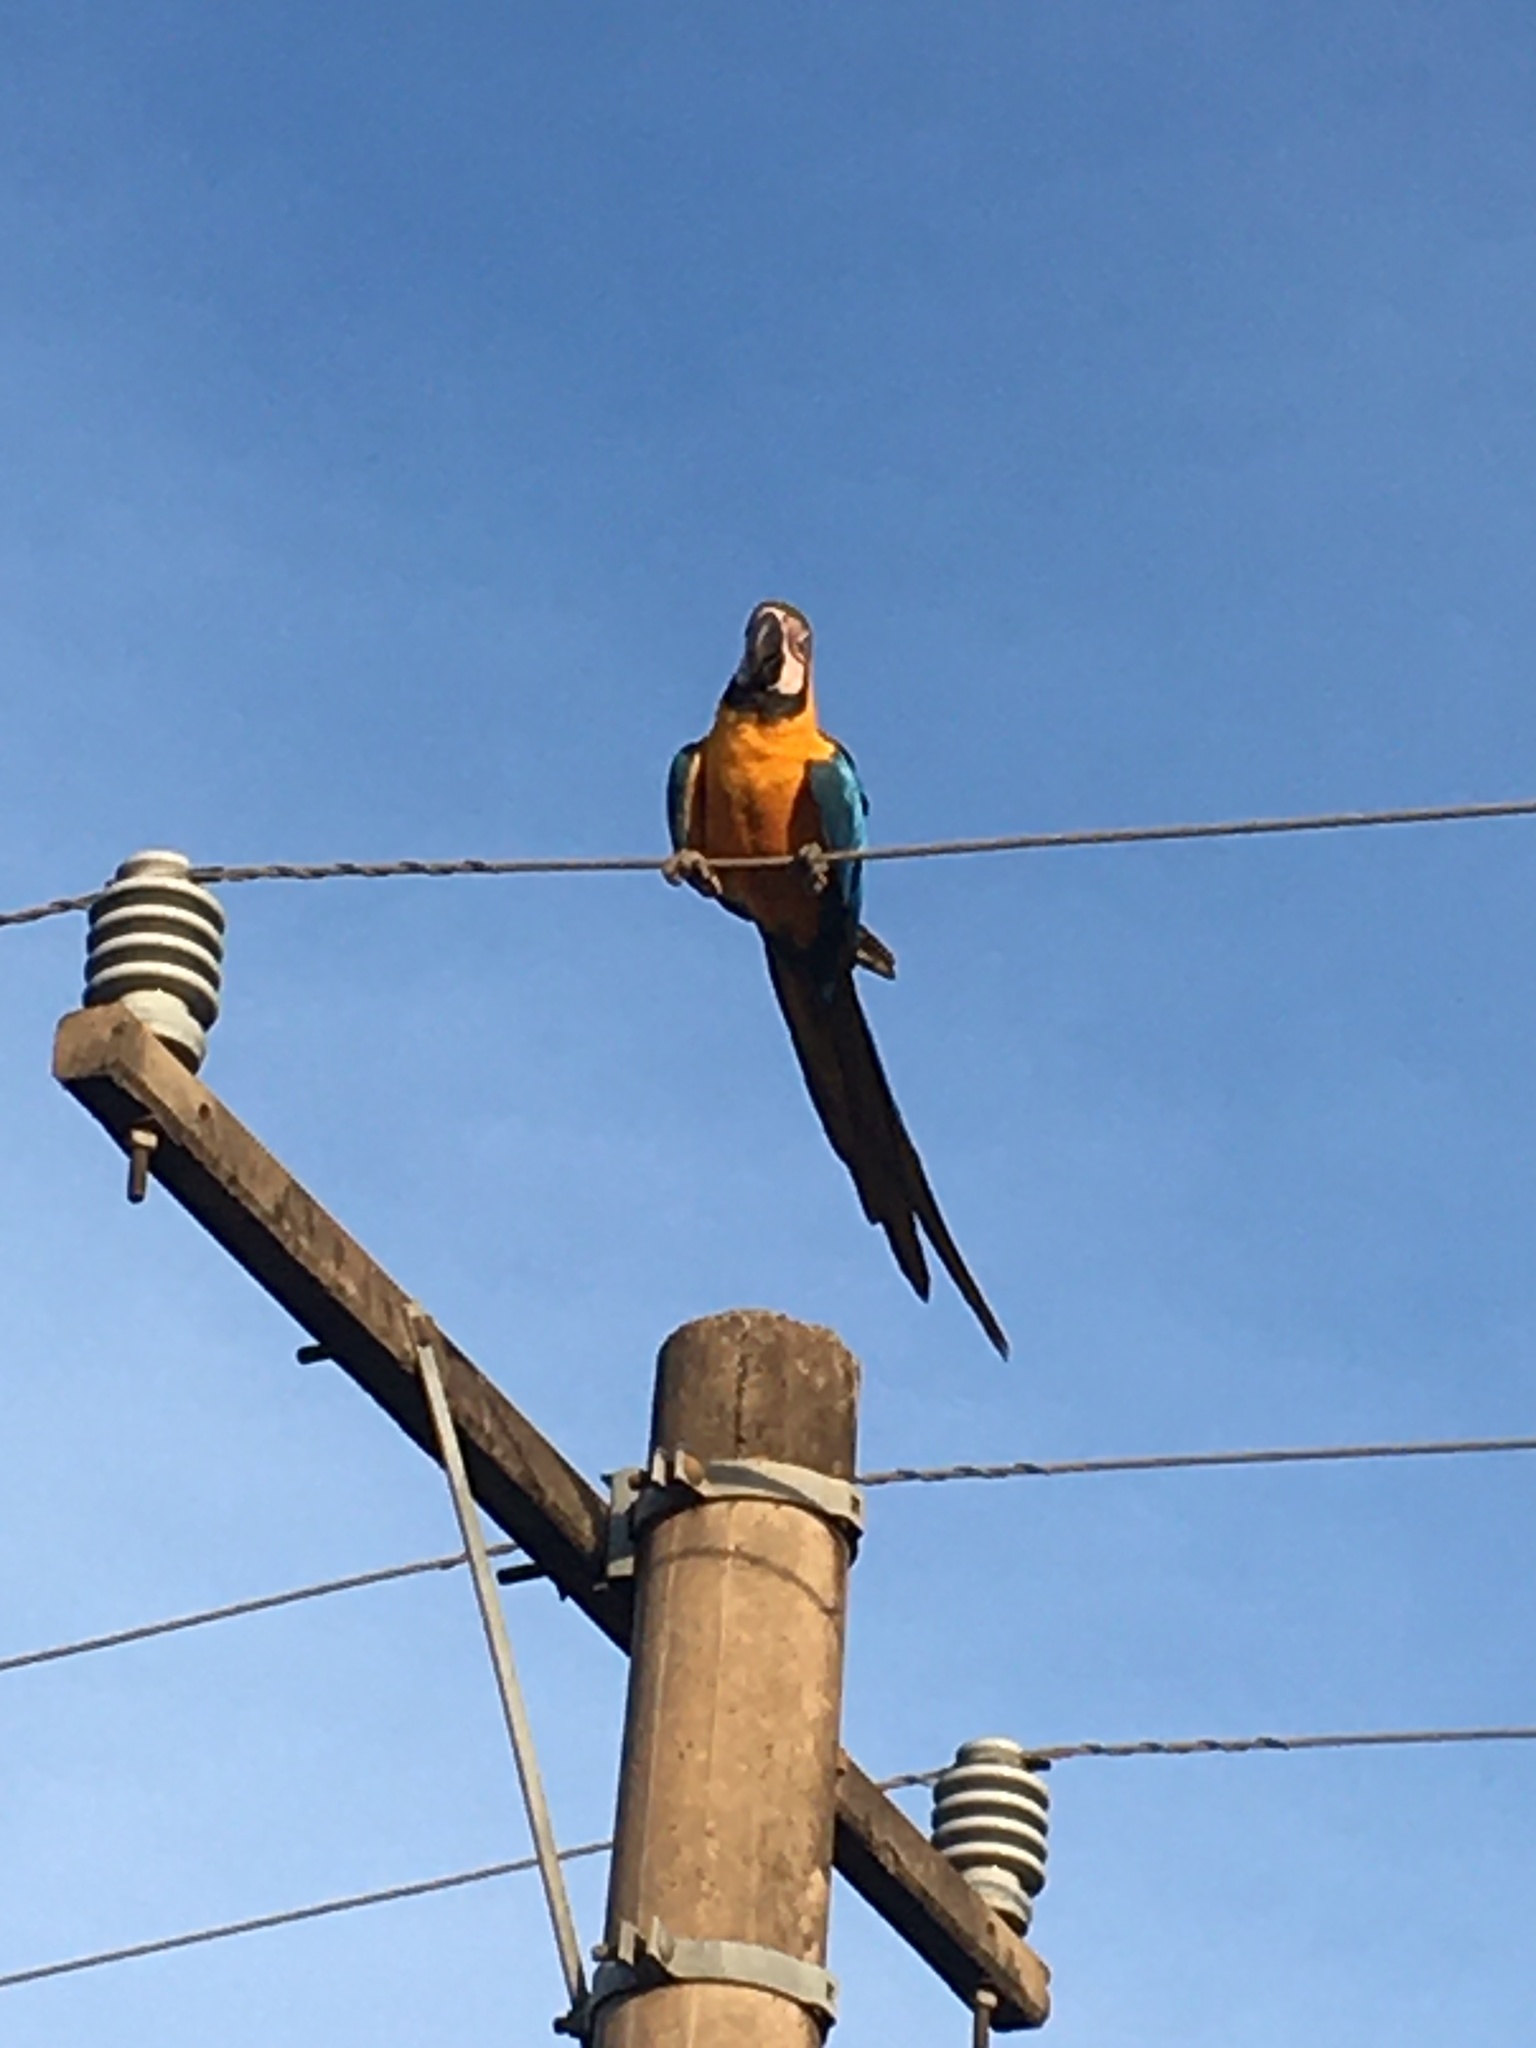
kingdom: Animalia
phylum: Chordata
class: Aves
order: Psittaciformes
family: Psittacidae
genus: Ara
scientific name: Ara ararauna
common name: Blue-and-yellow macaw
